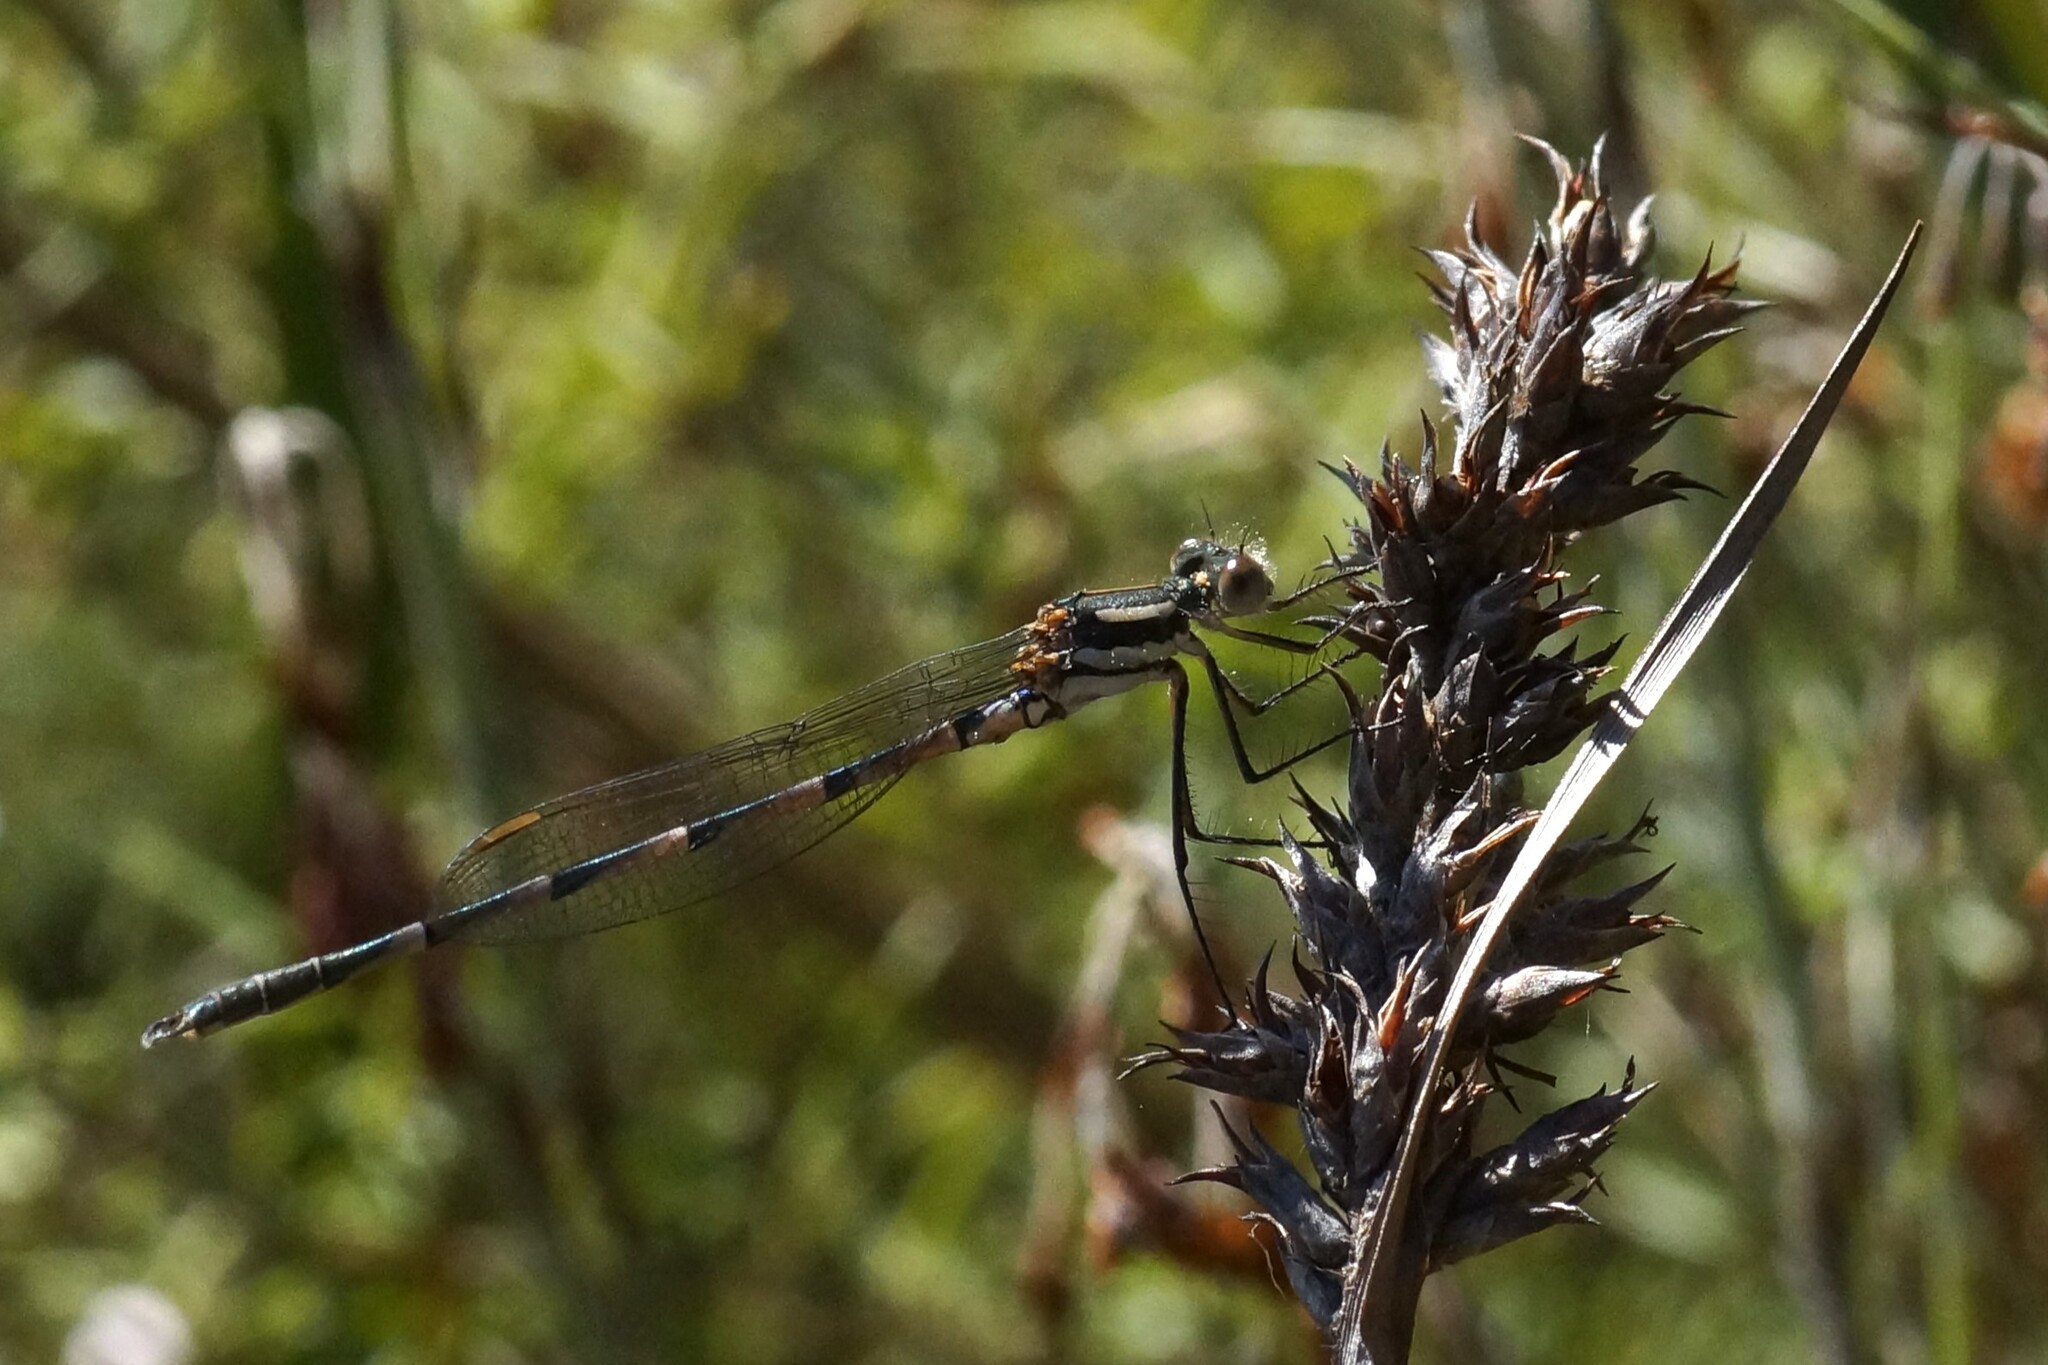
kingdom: Animalia
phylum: Arthropoda
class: Insecta
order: Odonata
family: Lestidae
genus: Austrolestes
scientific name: Austrolestes annulosus
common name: Blue ringtail
